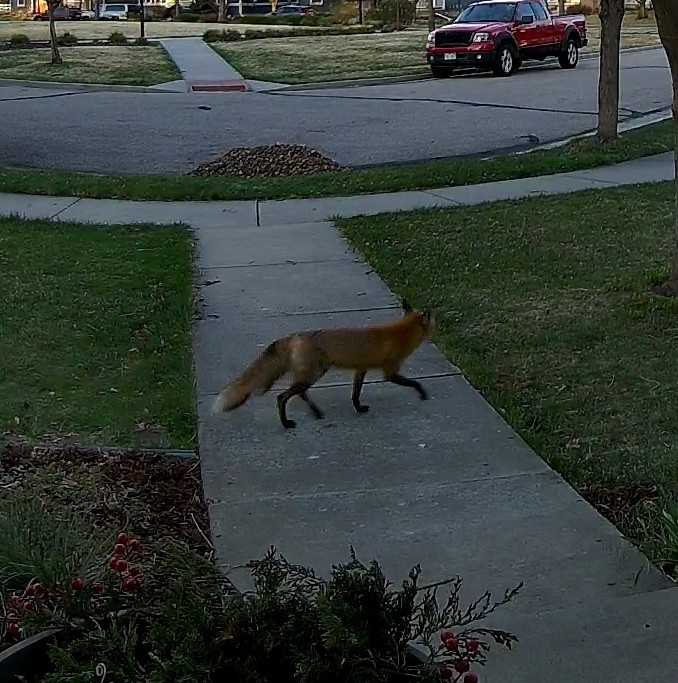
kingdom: Animalia
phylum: Chordata
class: Mammalia
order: Carnivora
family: Canidae
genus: Vulpes
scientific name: Vulpes vulpes
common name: Red fox
